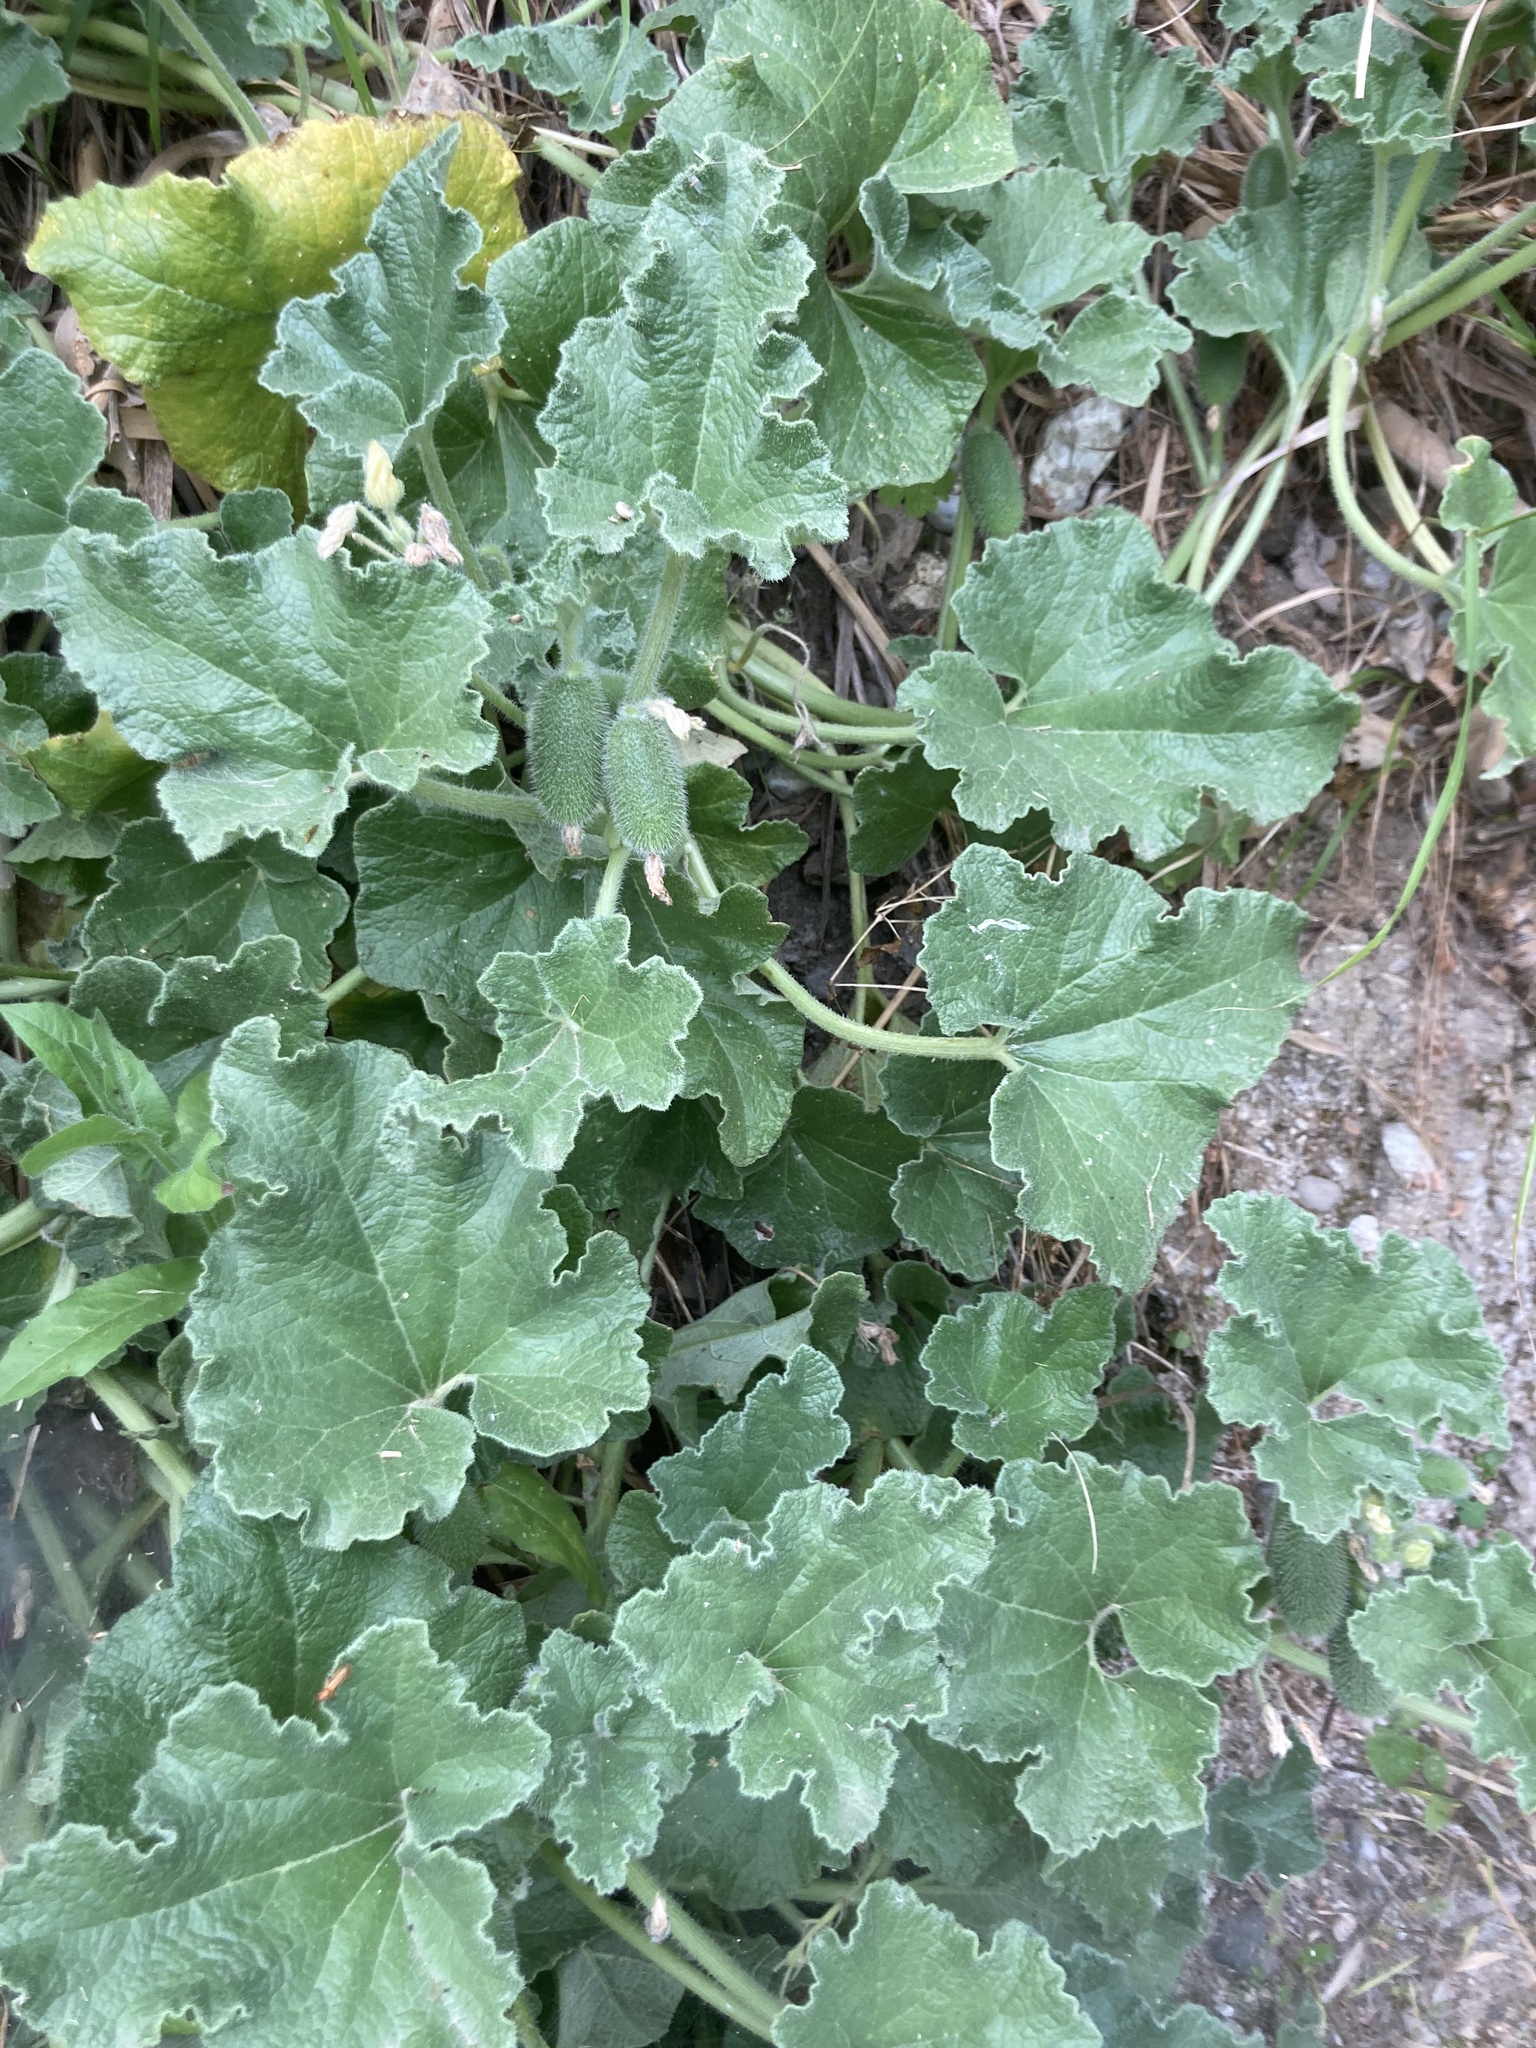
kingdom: Plantae
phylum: Tracheophyta
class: Magnoliopsida
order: Cucurbitales
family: Cucurbitaceae
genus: Ecballium
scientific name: Ecballium elaterium
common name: Squirting cucumber
